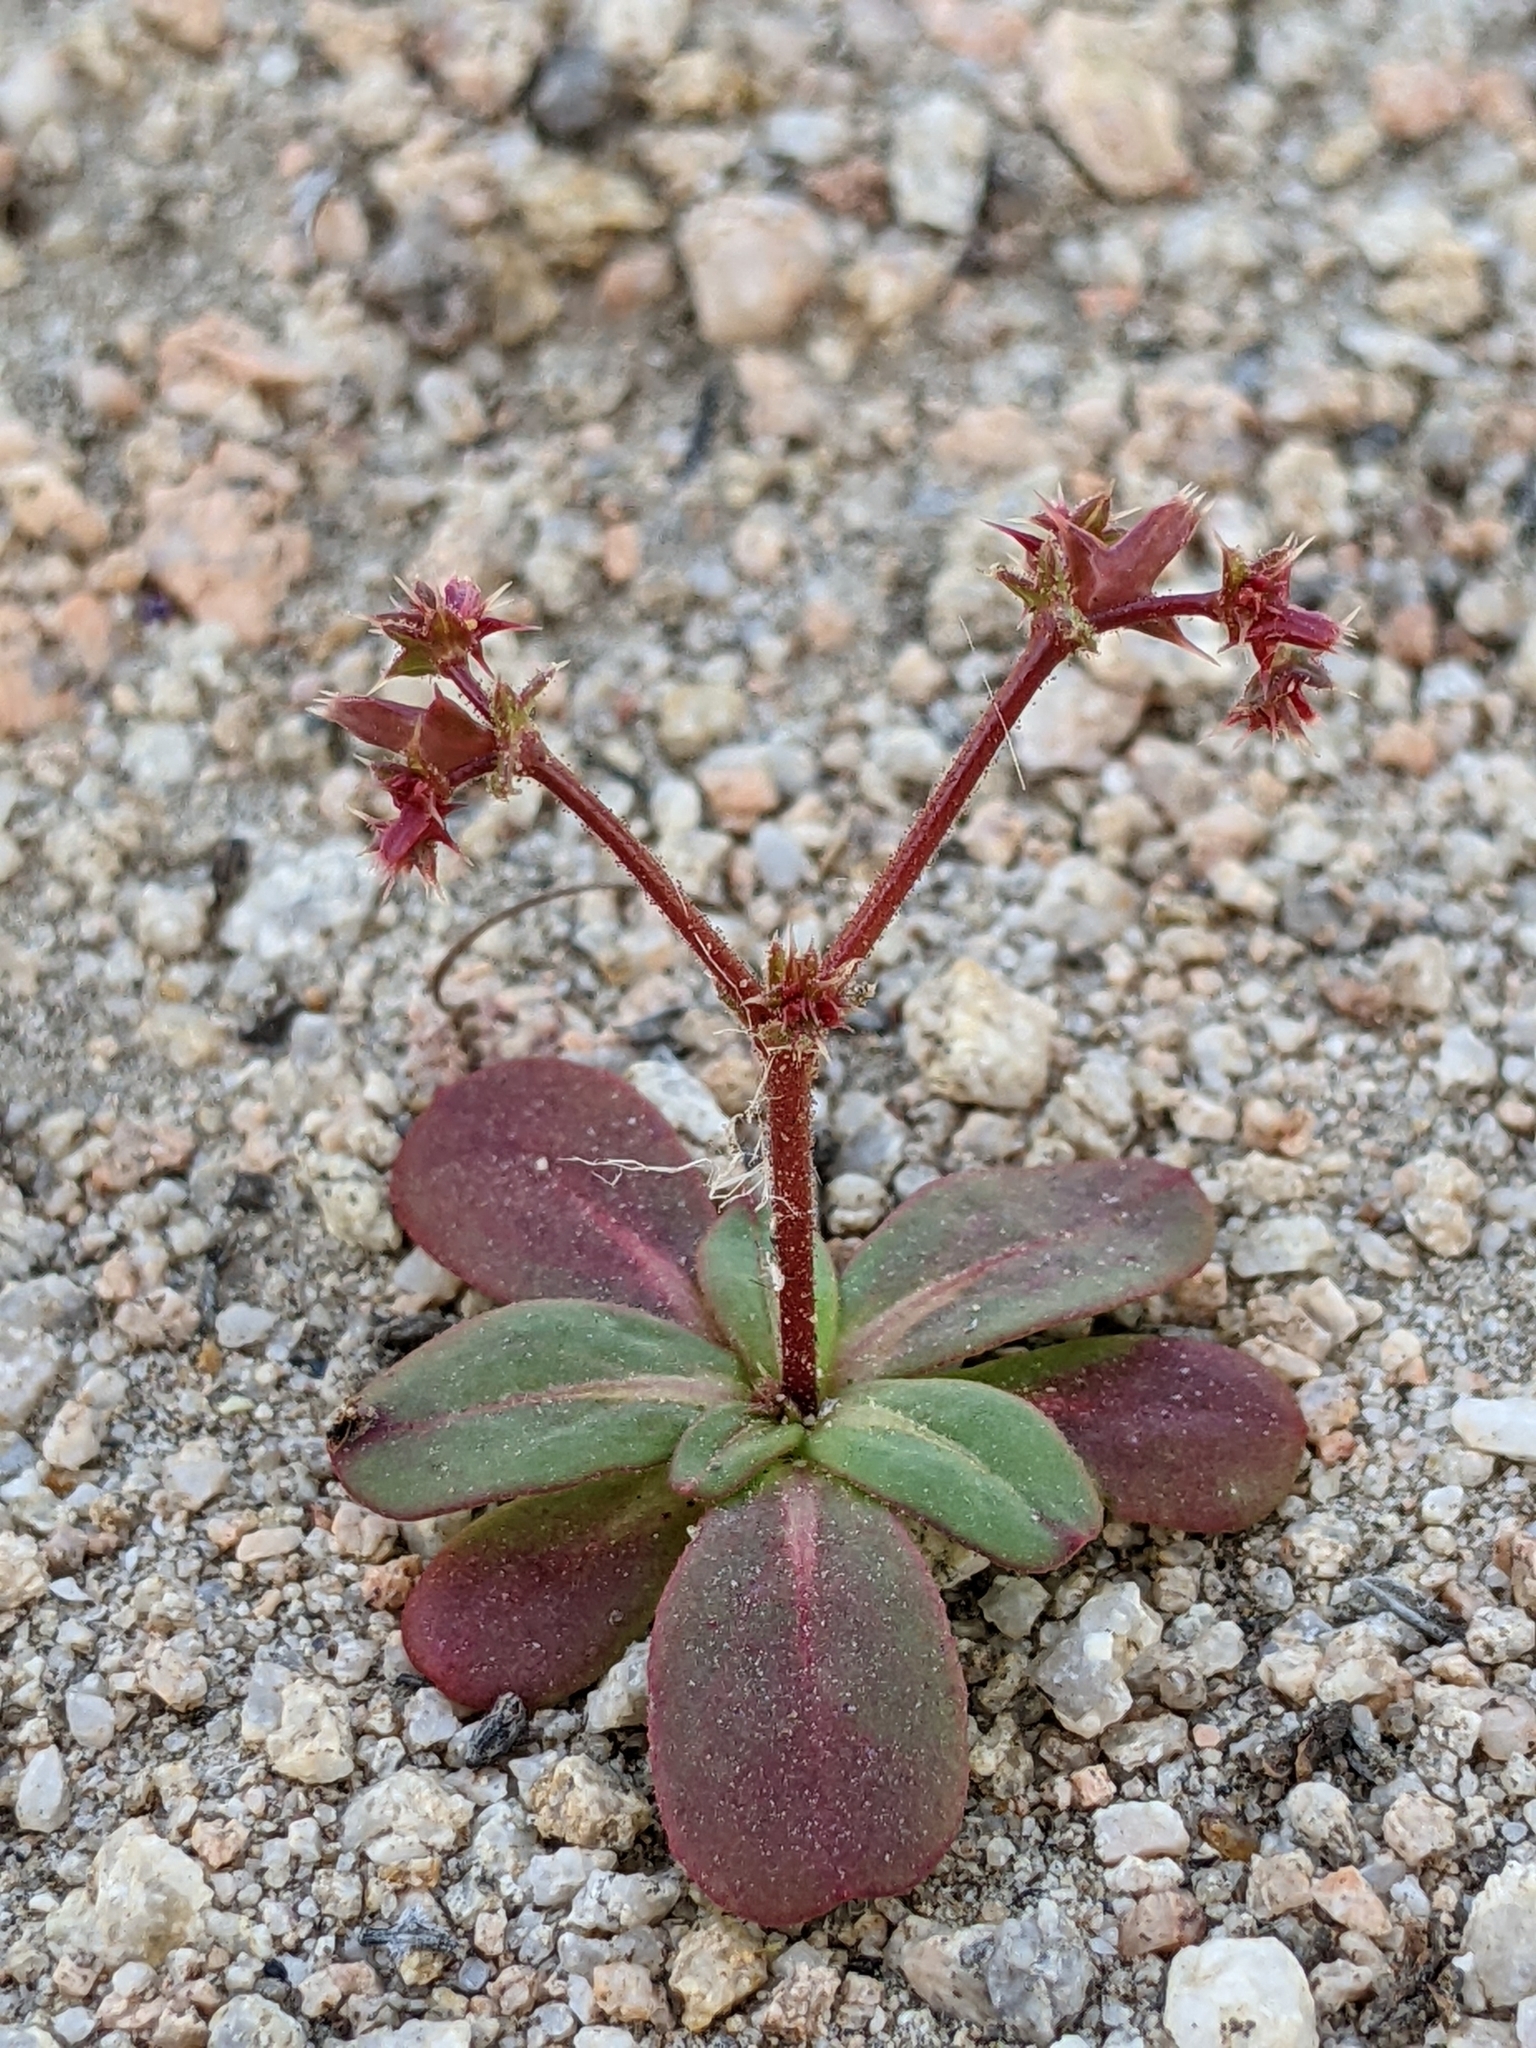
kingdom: Plantae
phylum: Tracheophyta
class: Magnoliopsida
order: Caryophyllales
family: Polygonaceae
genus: Centrostegia
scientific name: Centrostegia thurberi
